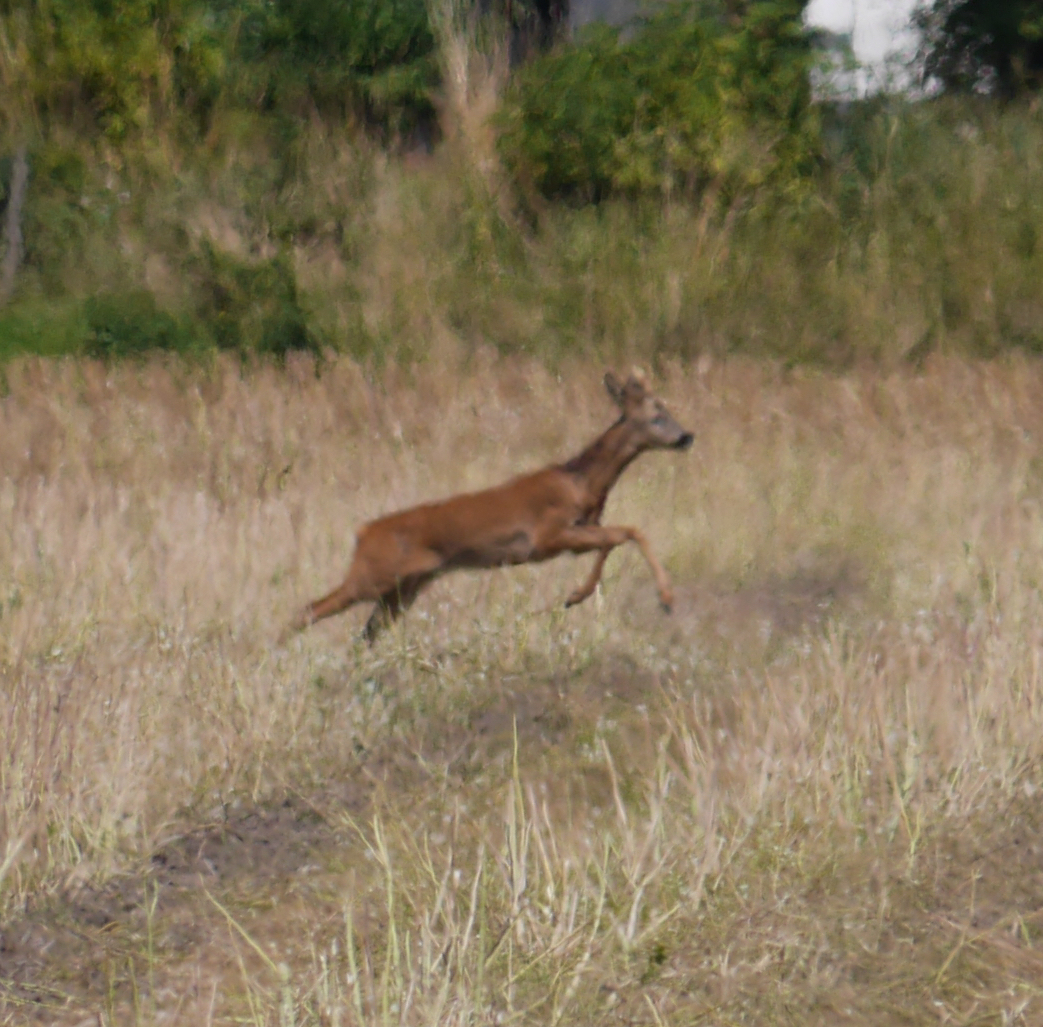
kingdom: Animalia
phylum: Chordata
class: Mammalia
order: Artiodactyla
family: Cervidae
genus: Capreolus
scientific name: Capreolus capreolus
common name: Western roe deer
